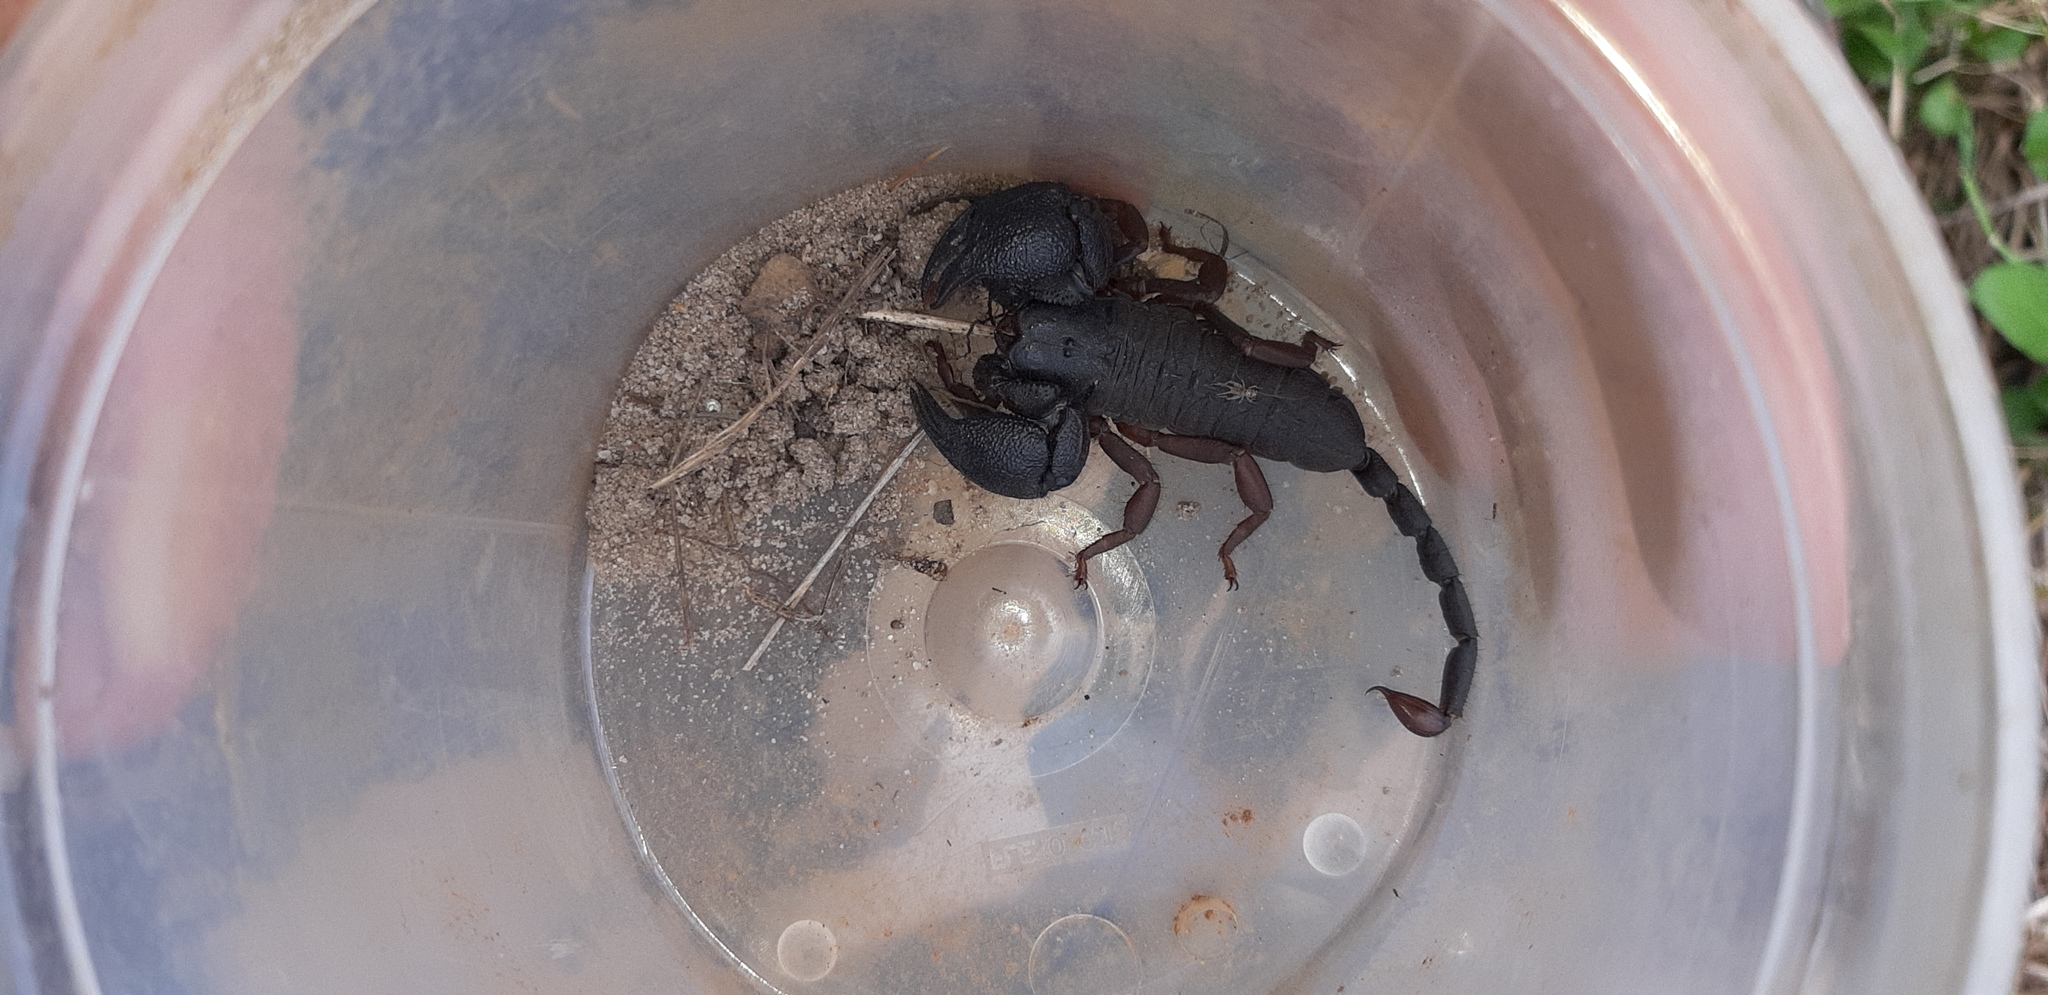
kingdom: Animalia
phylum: Arthropoda
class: Arachnida
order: Scorpiones
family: Hormuridae
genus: Cheloctonus
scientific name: Cheloctonus jonesii
